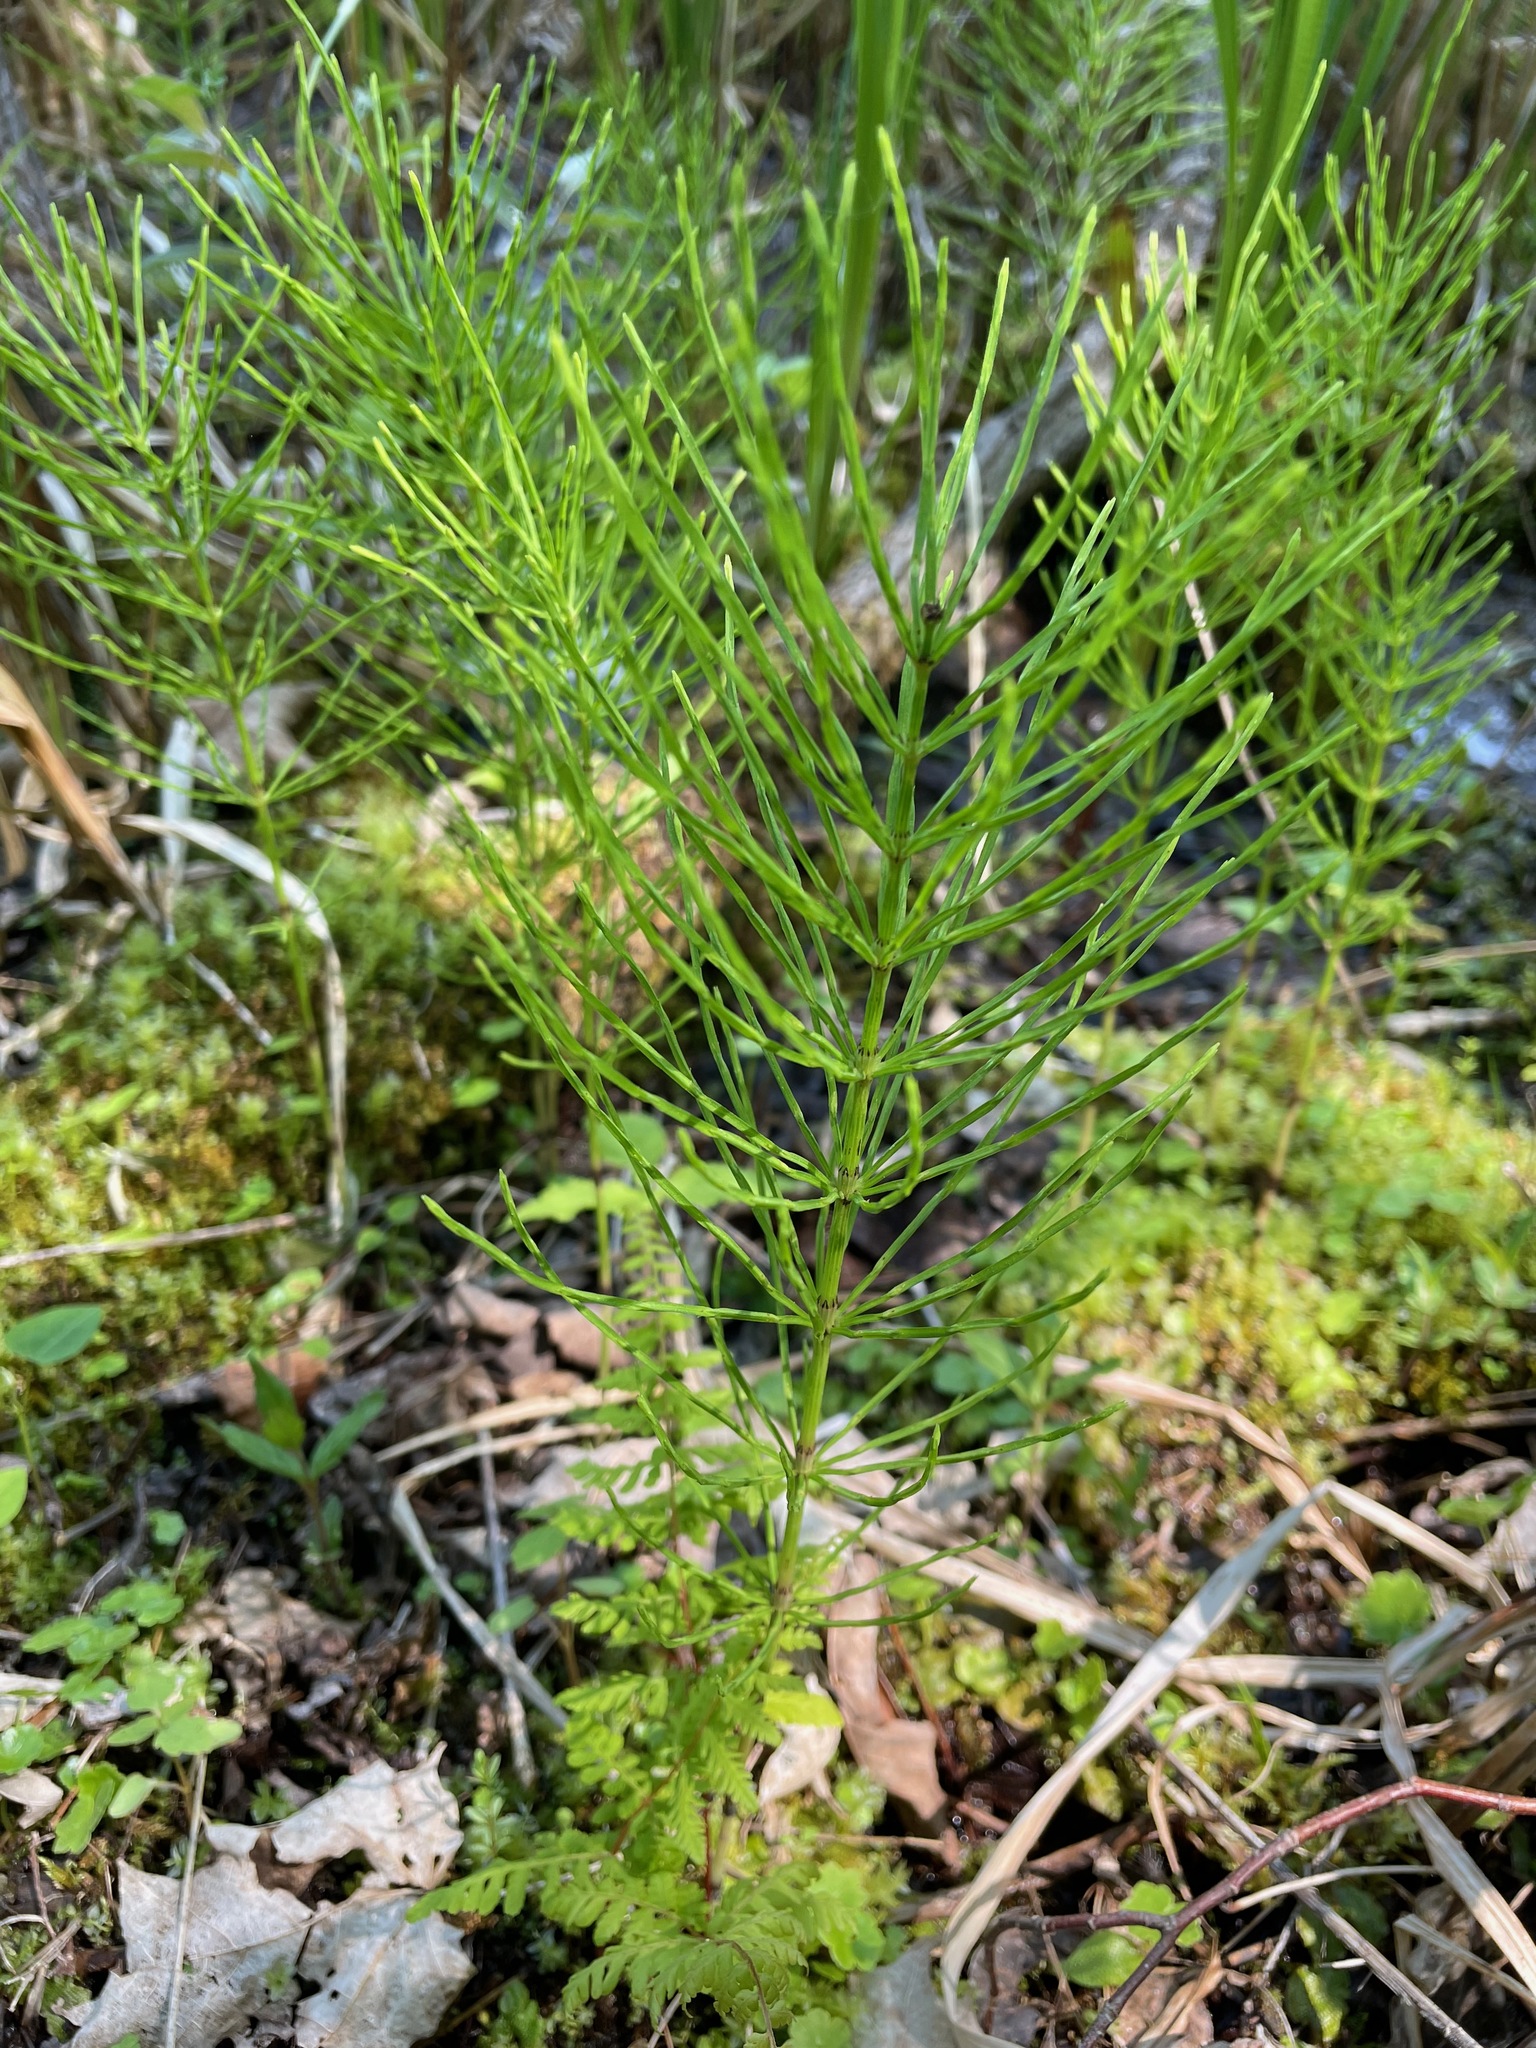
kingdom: Plantae
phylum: Tracheophyta
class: Polypodiopsida
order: Equisetales
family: Equisetaceae
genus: Equisetum
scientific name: Equisetum arvense
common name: Field horsetail
